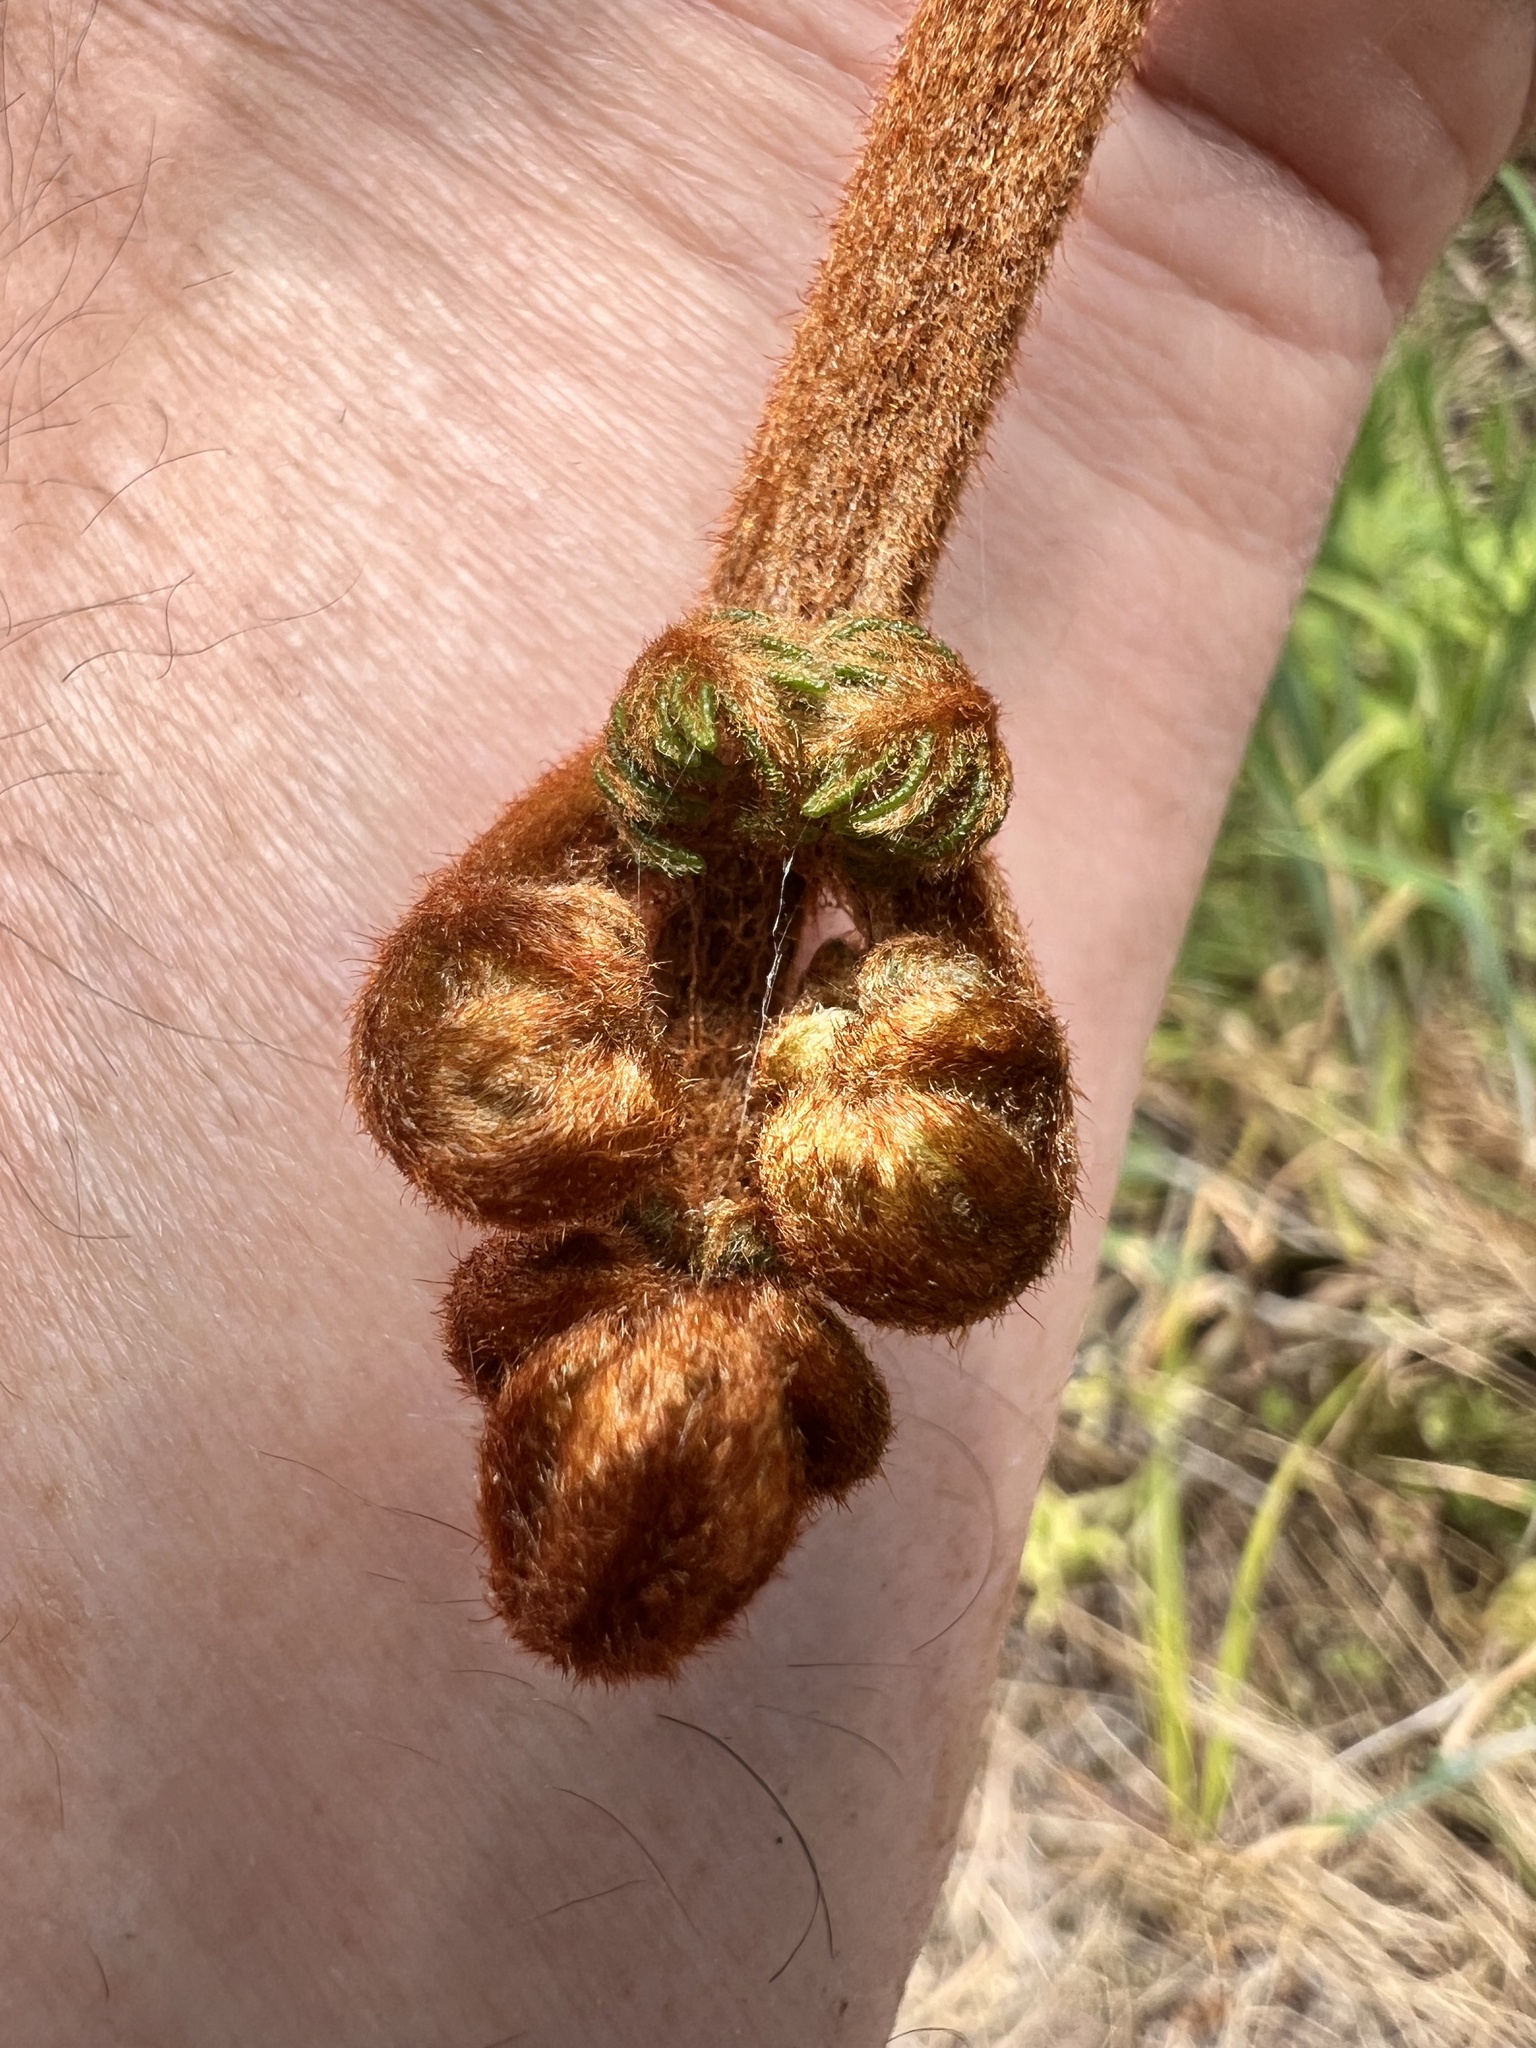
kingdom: Plantae
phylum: Tracheophyta
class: Polypodiopsida
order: Polypodiales
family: Dennstaedtiaceae
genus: Pteridium
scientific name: Pteridium esculentum
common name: Bracken fern
